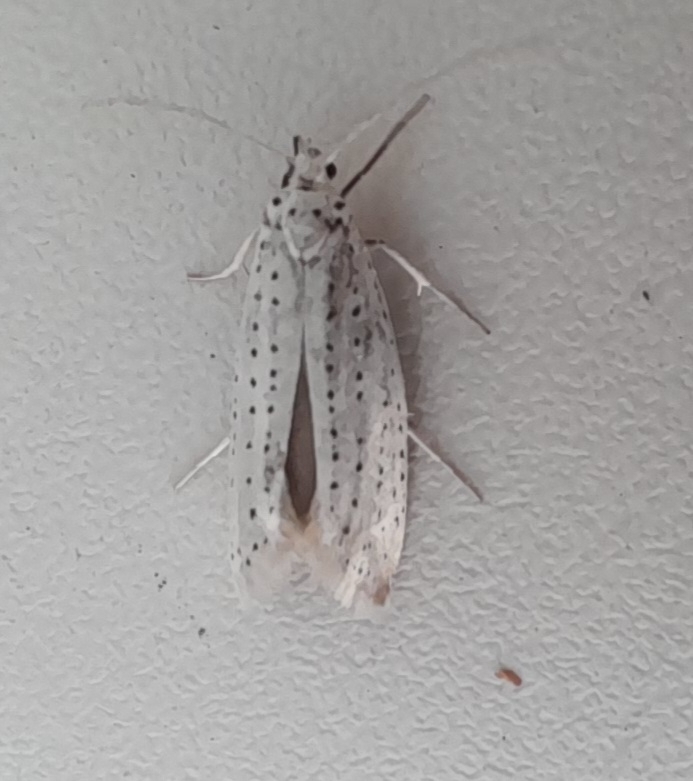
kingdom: Animalia
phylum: Arthropoda
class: Insecta
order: Lepidoptera
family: Yponomeutidae
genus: Yponomeuta
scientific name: Yponomeuta evonymella
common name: Bird-cherry ermine
